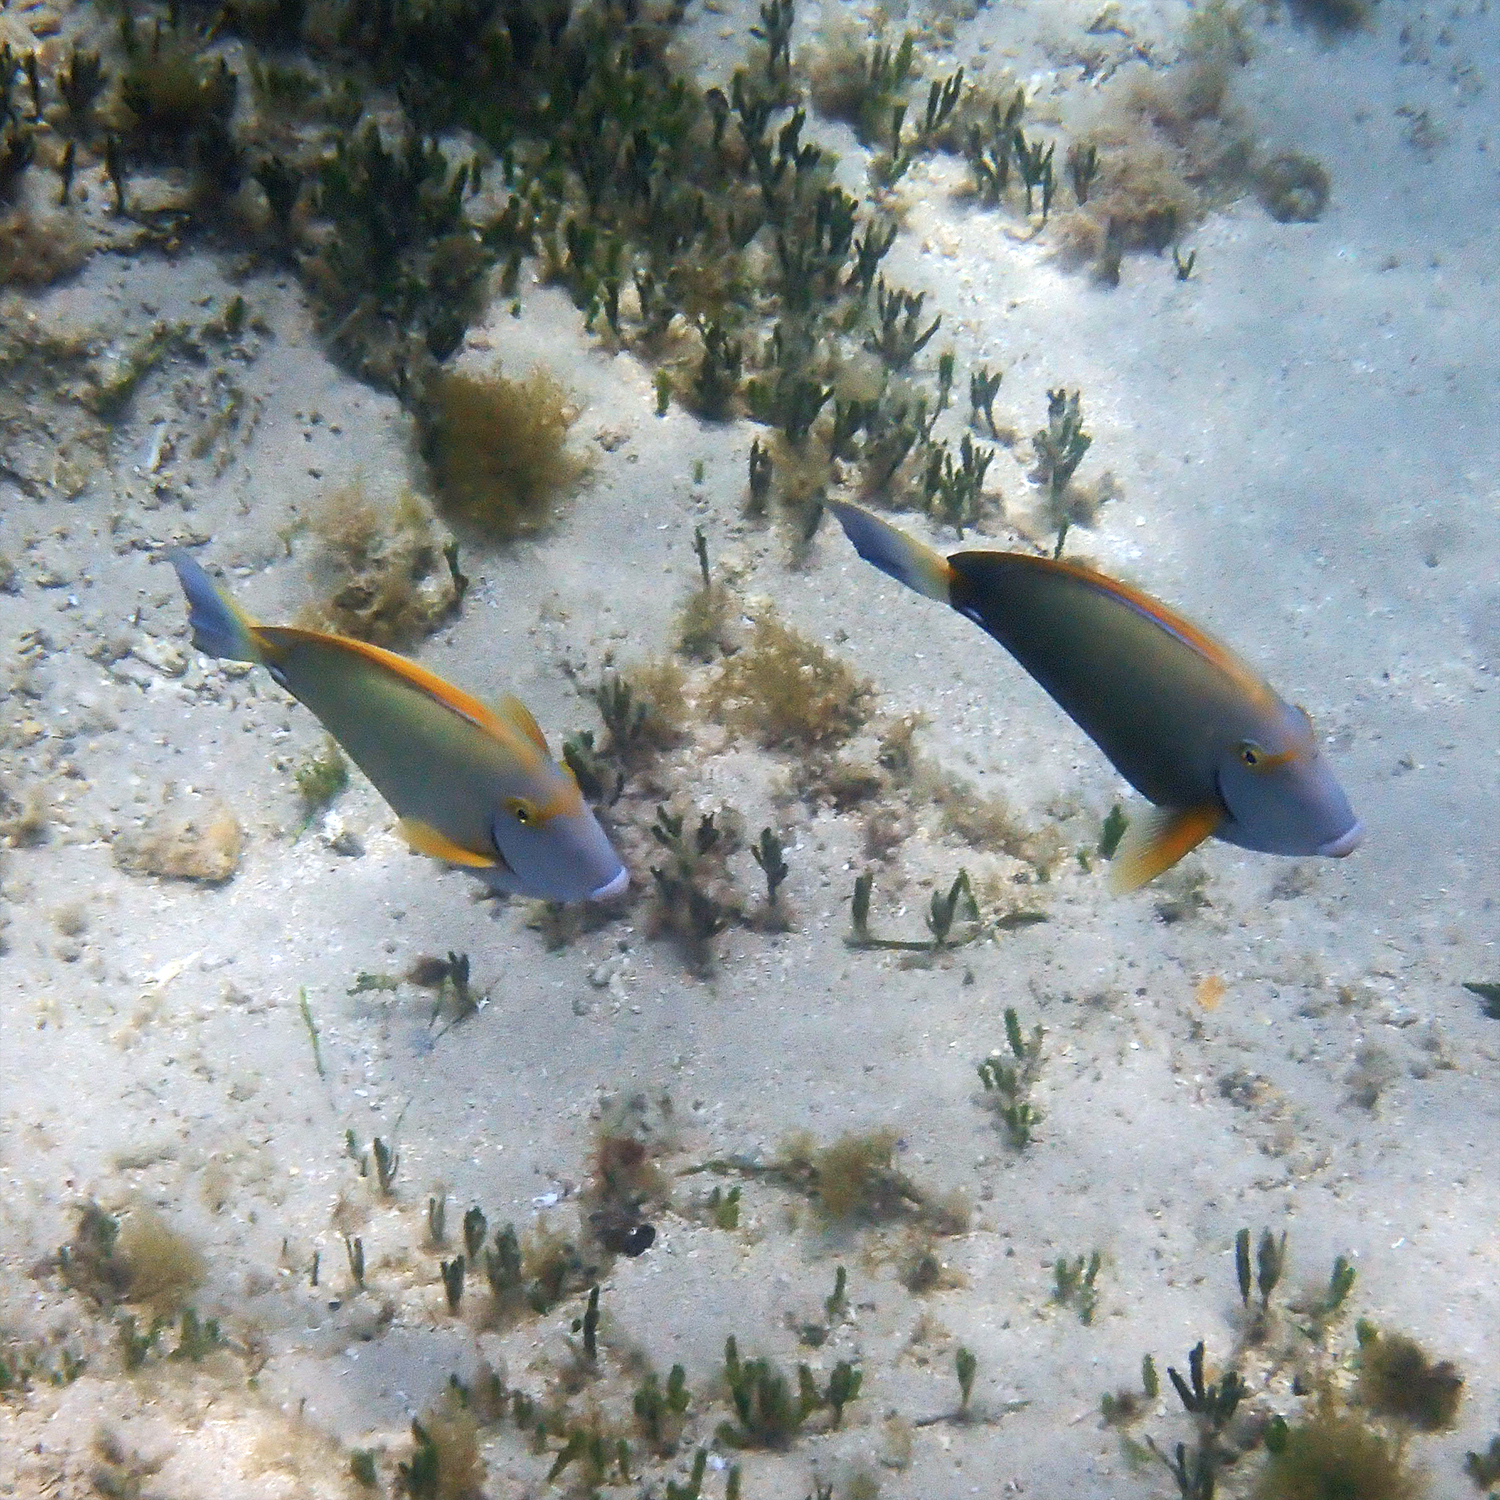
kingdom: Animalia
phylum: Chordata
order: Perciformes
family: Acanthuridae
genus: Acanthurus
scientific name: Acanthurus dussumieri
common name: Dussumier's surgeonfish
